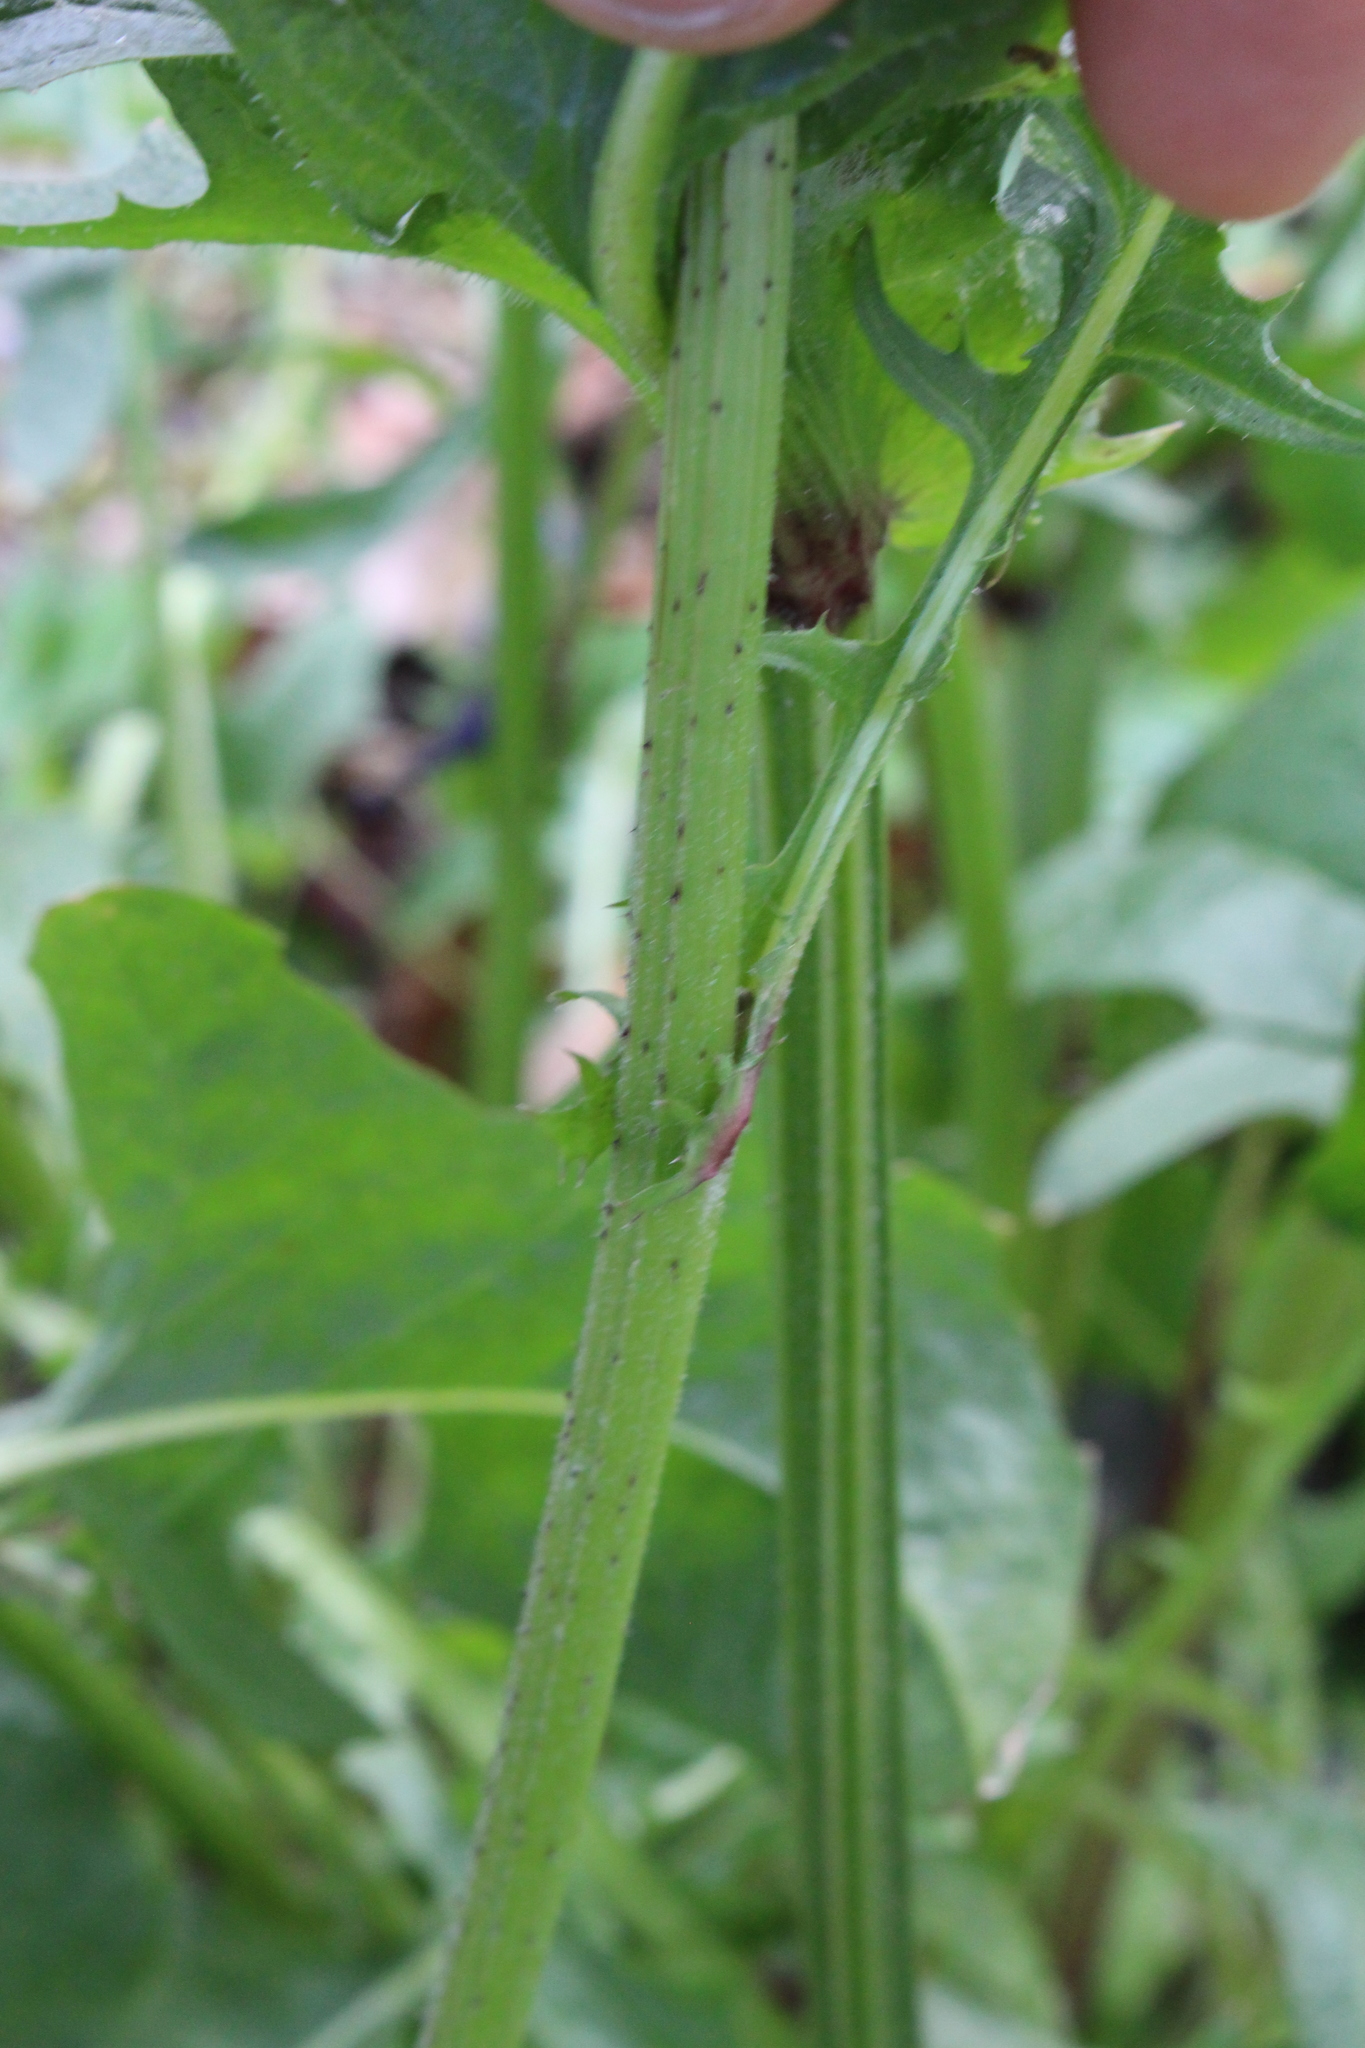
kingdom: Plantae
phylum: Tracheophyta
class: Magnoliopsida
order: Asterales
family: Asteraceae
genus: Crepis
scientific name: Crepis vesicaria
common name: Beaked hawksbeard
